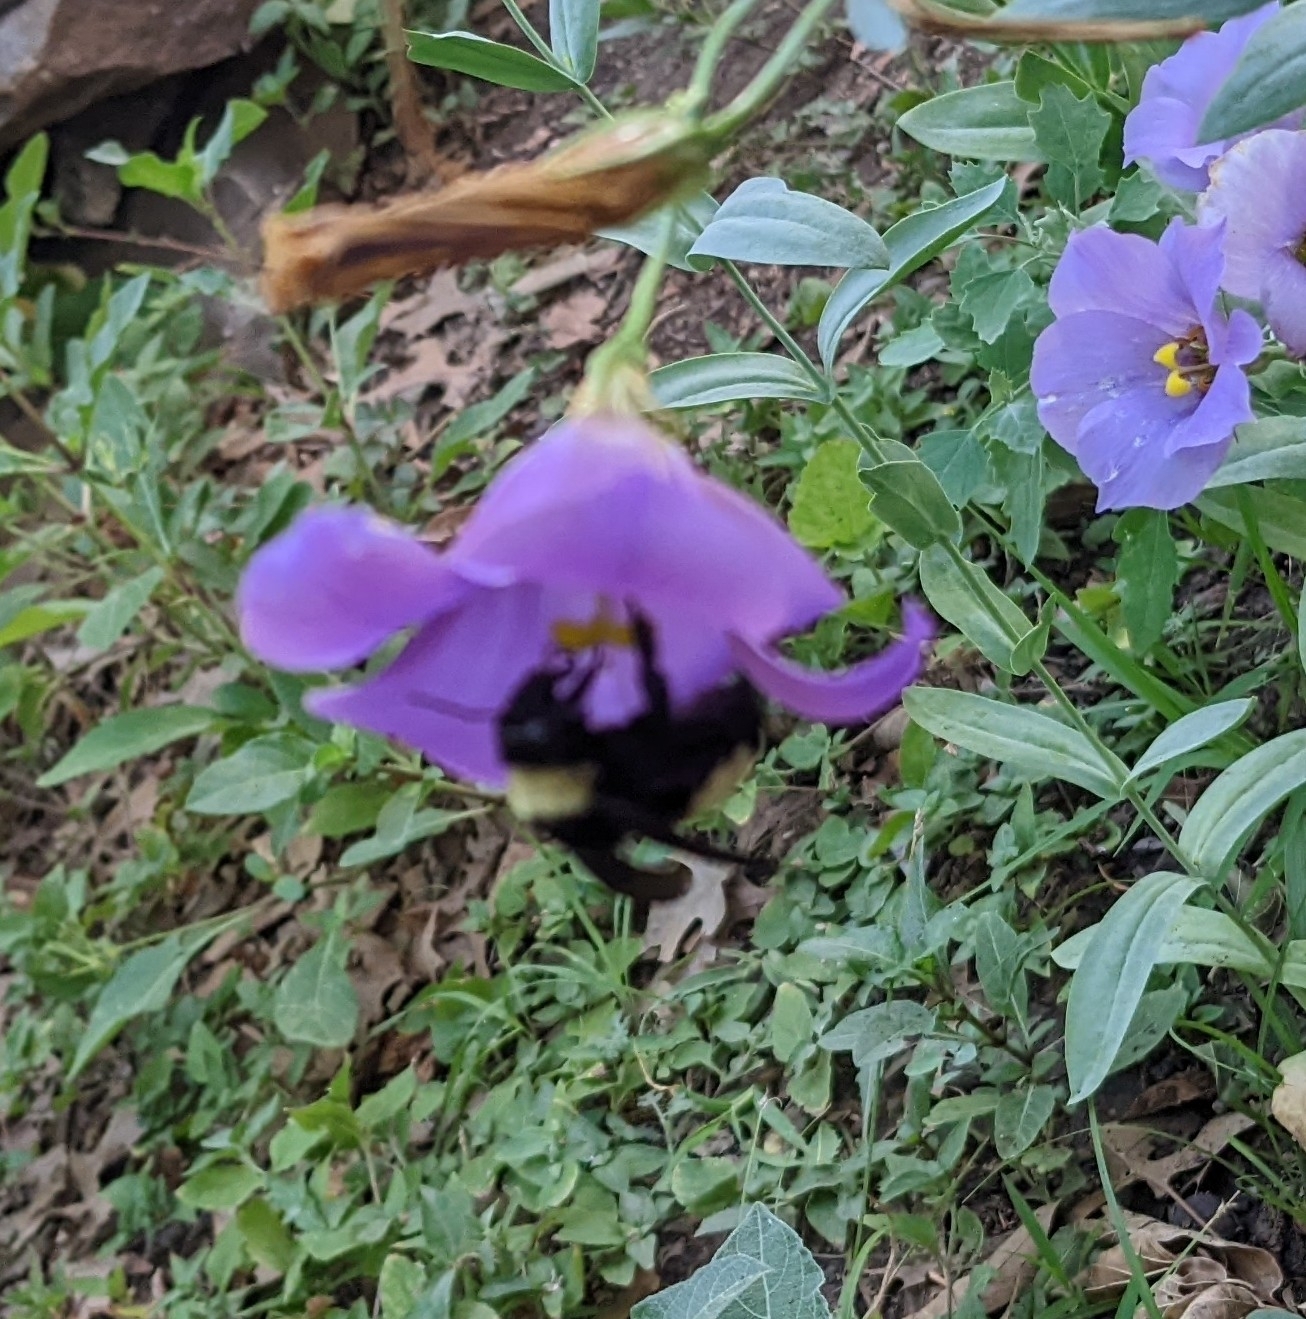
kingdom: Animalia
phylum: Arthropoda
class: Insecta
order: Hymenoptera
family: Apidae
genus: Bombus
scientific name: Bombus pensylvanicus
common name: Bumble bee
